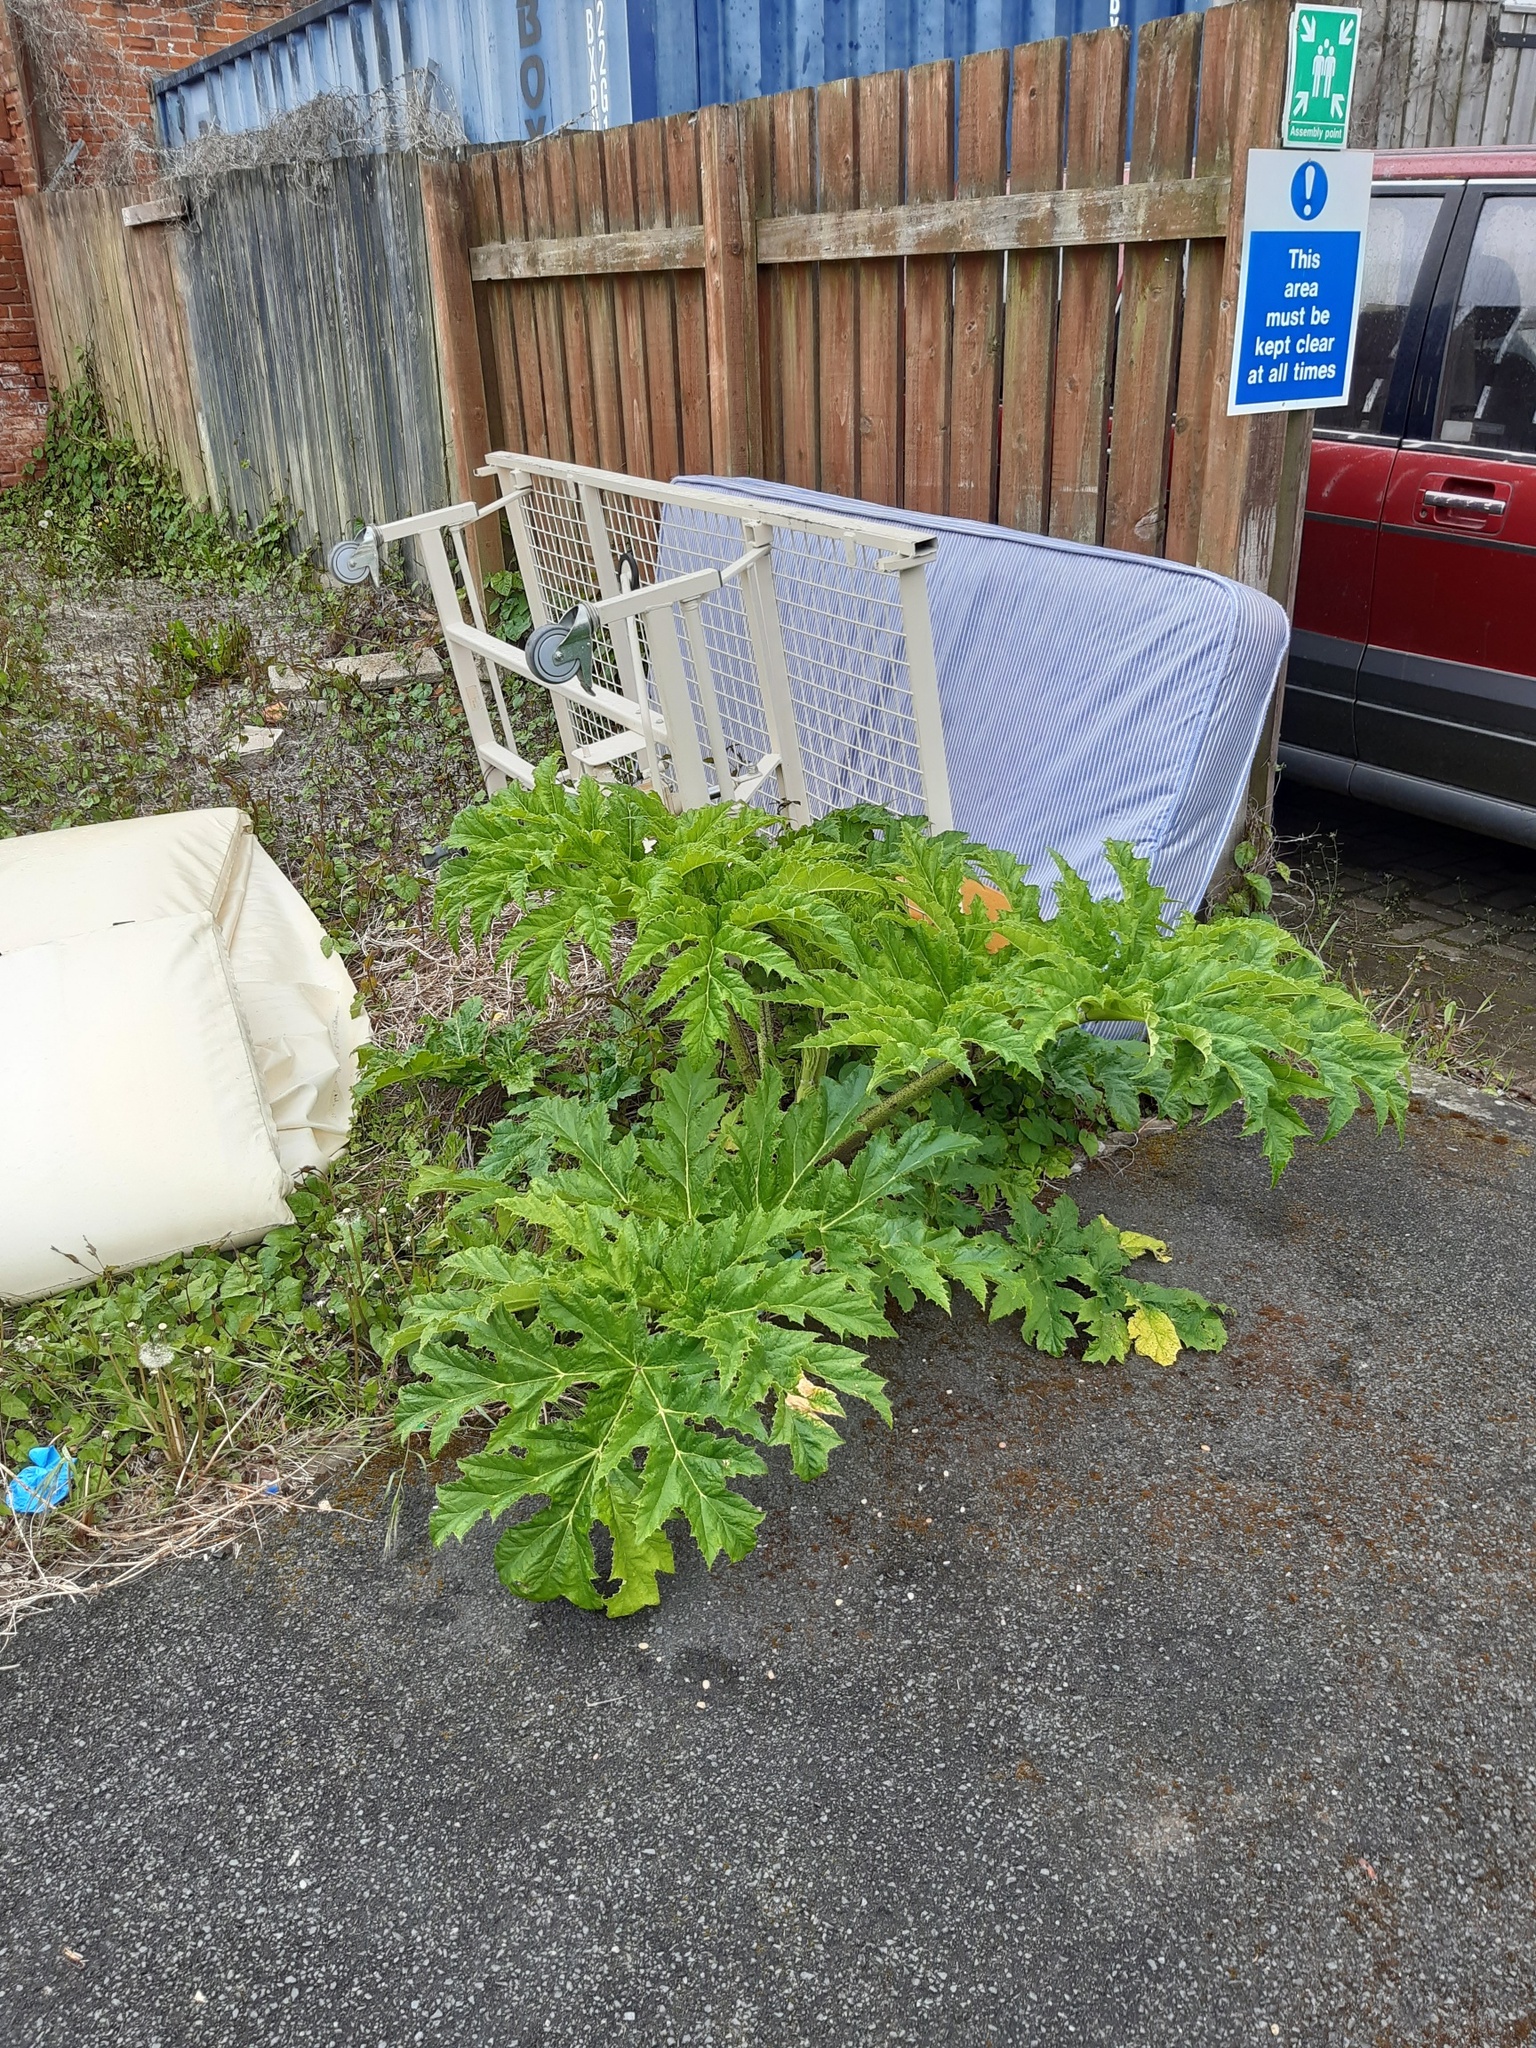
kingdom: Plantae
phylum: Tracheophyta
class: Magnoliopsida
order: Apiales
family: Apiaceae
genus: Heracleum
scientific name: Heracleum mantegazzianum
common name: Giant hogweed
